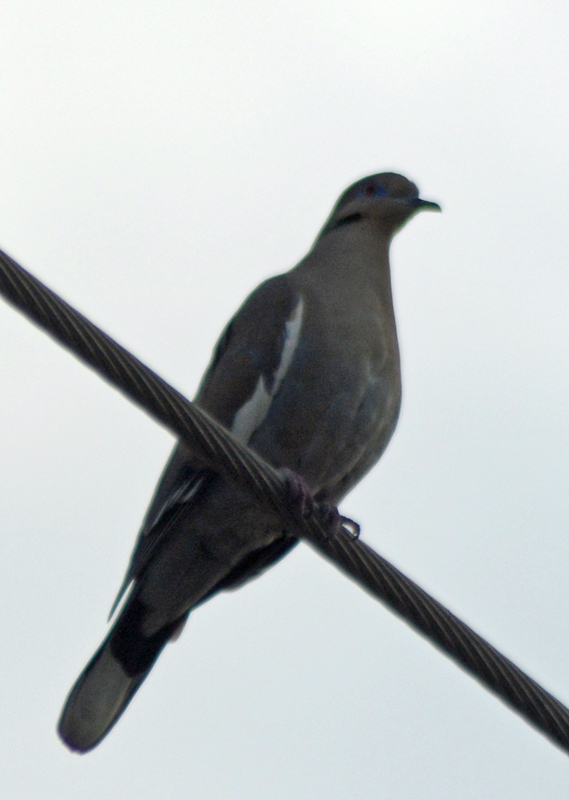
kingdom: Animalia
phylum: Chordata
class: Aves
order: Columbiformes
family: Columbidae
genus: Zenaida
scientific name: Zenaida asiatica
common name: White-winged dove
